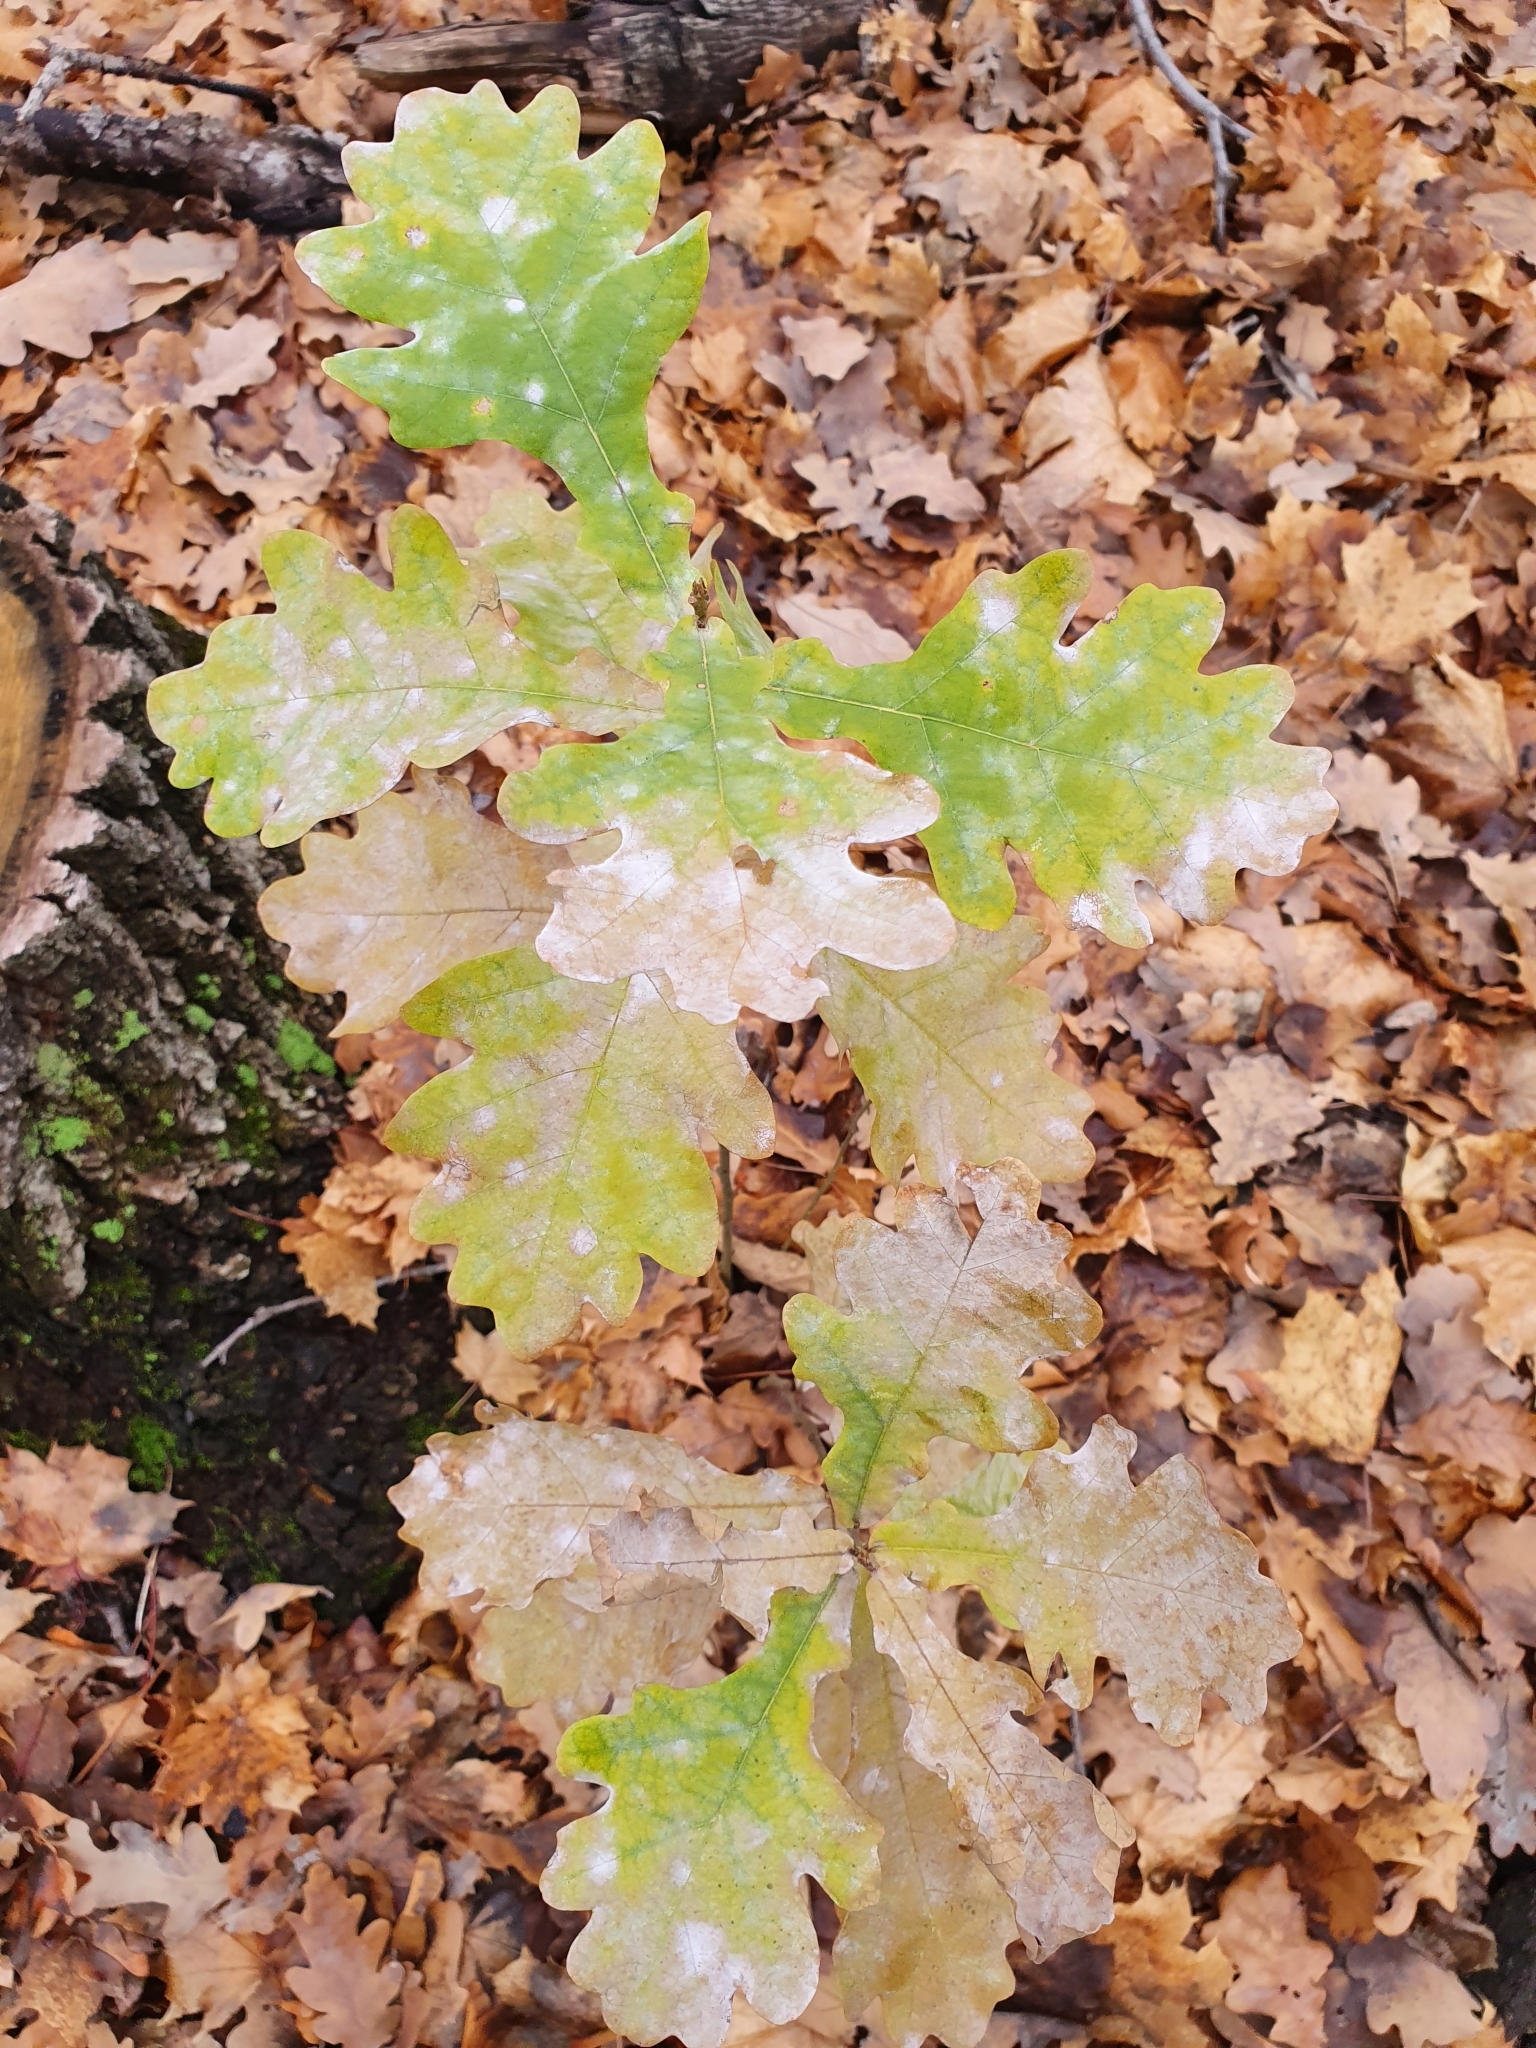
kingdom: Plantae
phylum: Tracheophyta
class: Magnoliopsida
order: Fagales
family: Fagaceae
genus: Quercus
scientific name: Quercus robur
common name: Pedunculate oak
